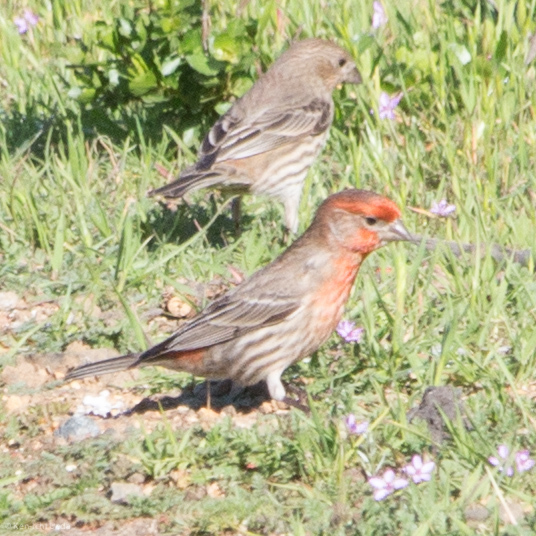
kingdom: Animalia
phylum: Chordata
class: Aves
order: Passeriformes
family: Fringillidae
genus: Haemorhous
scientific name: Haemorhous mexicanus
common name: House finch
